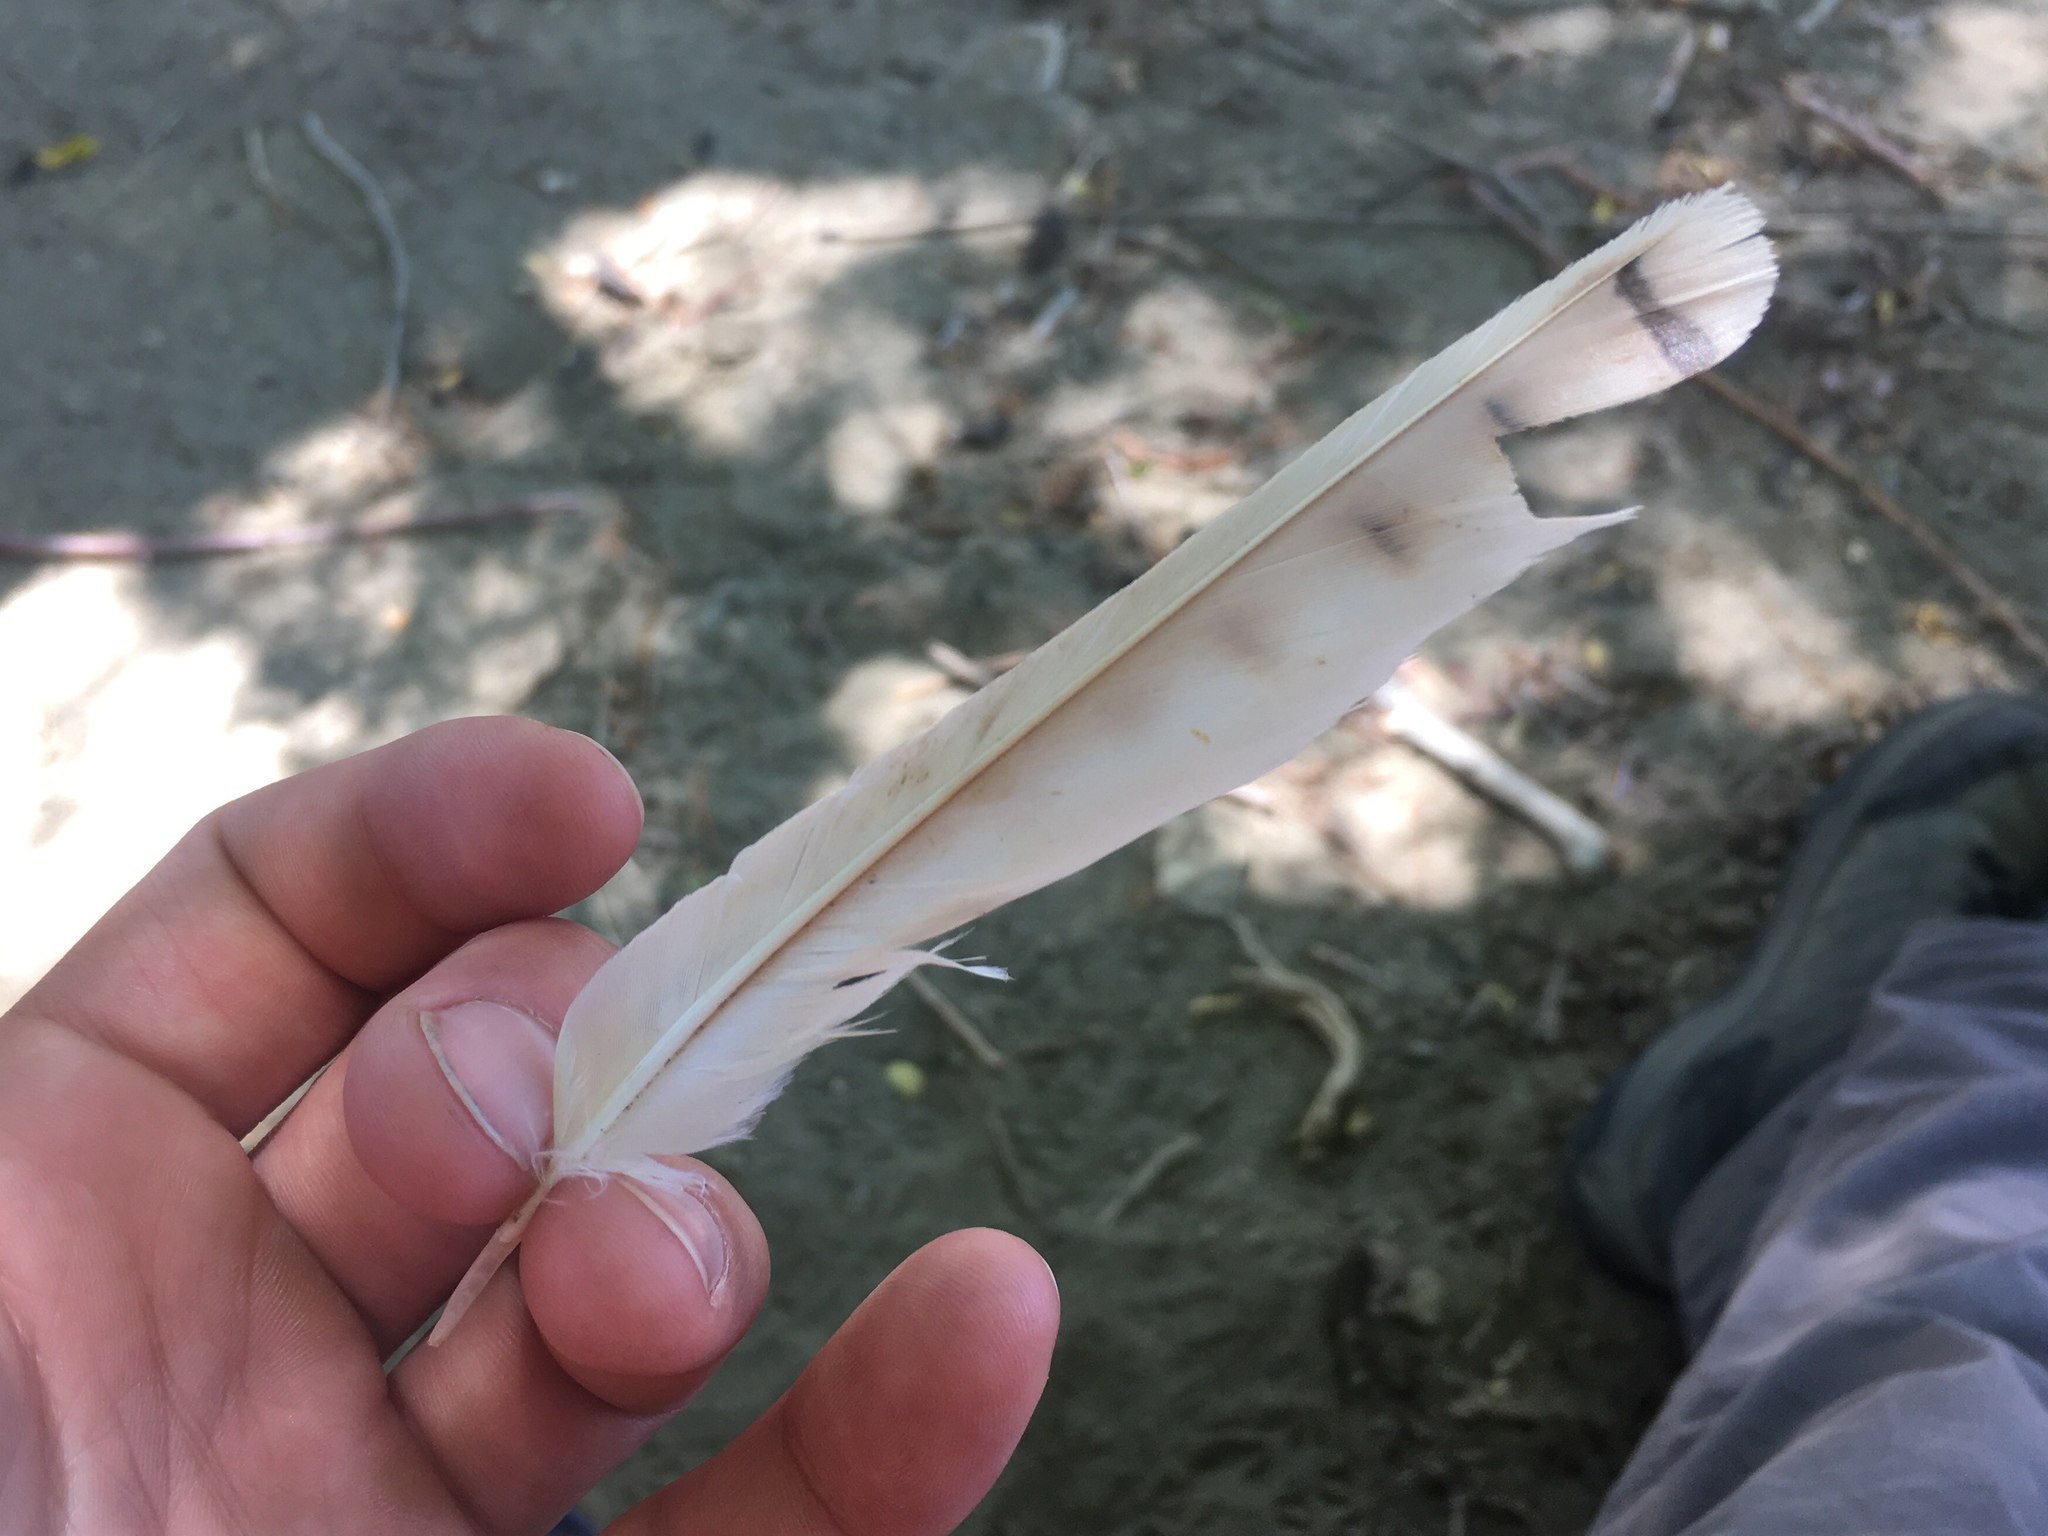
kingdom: Animalia
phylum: Chordata
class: Aves
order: Falconiformes
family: Falconidae
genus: Falco
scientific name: Falco sparverius
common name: American kestrel
